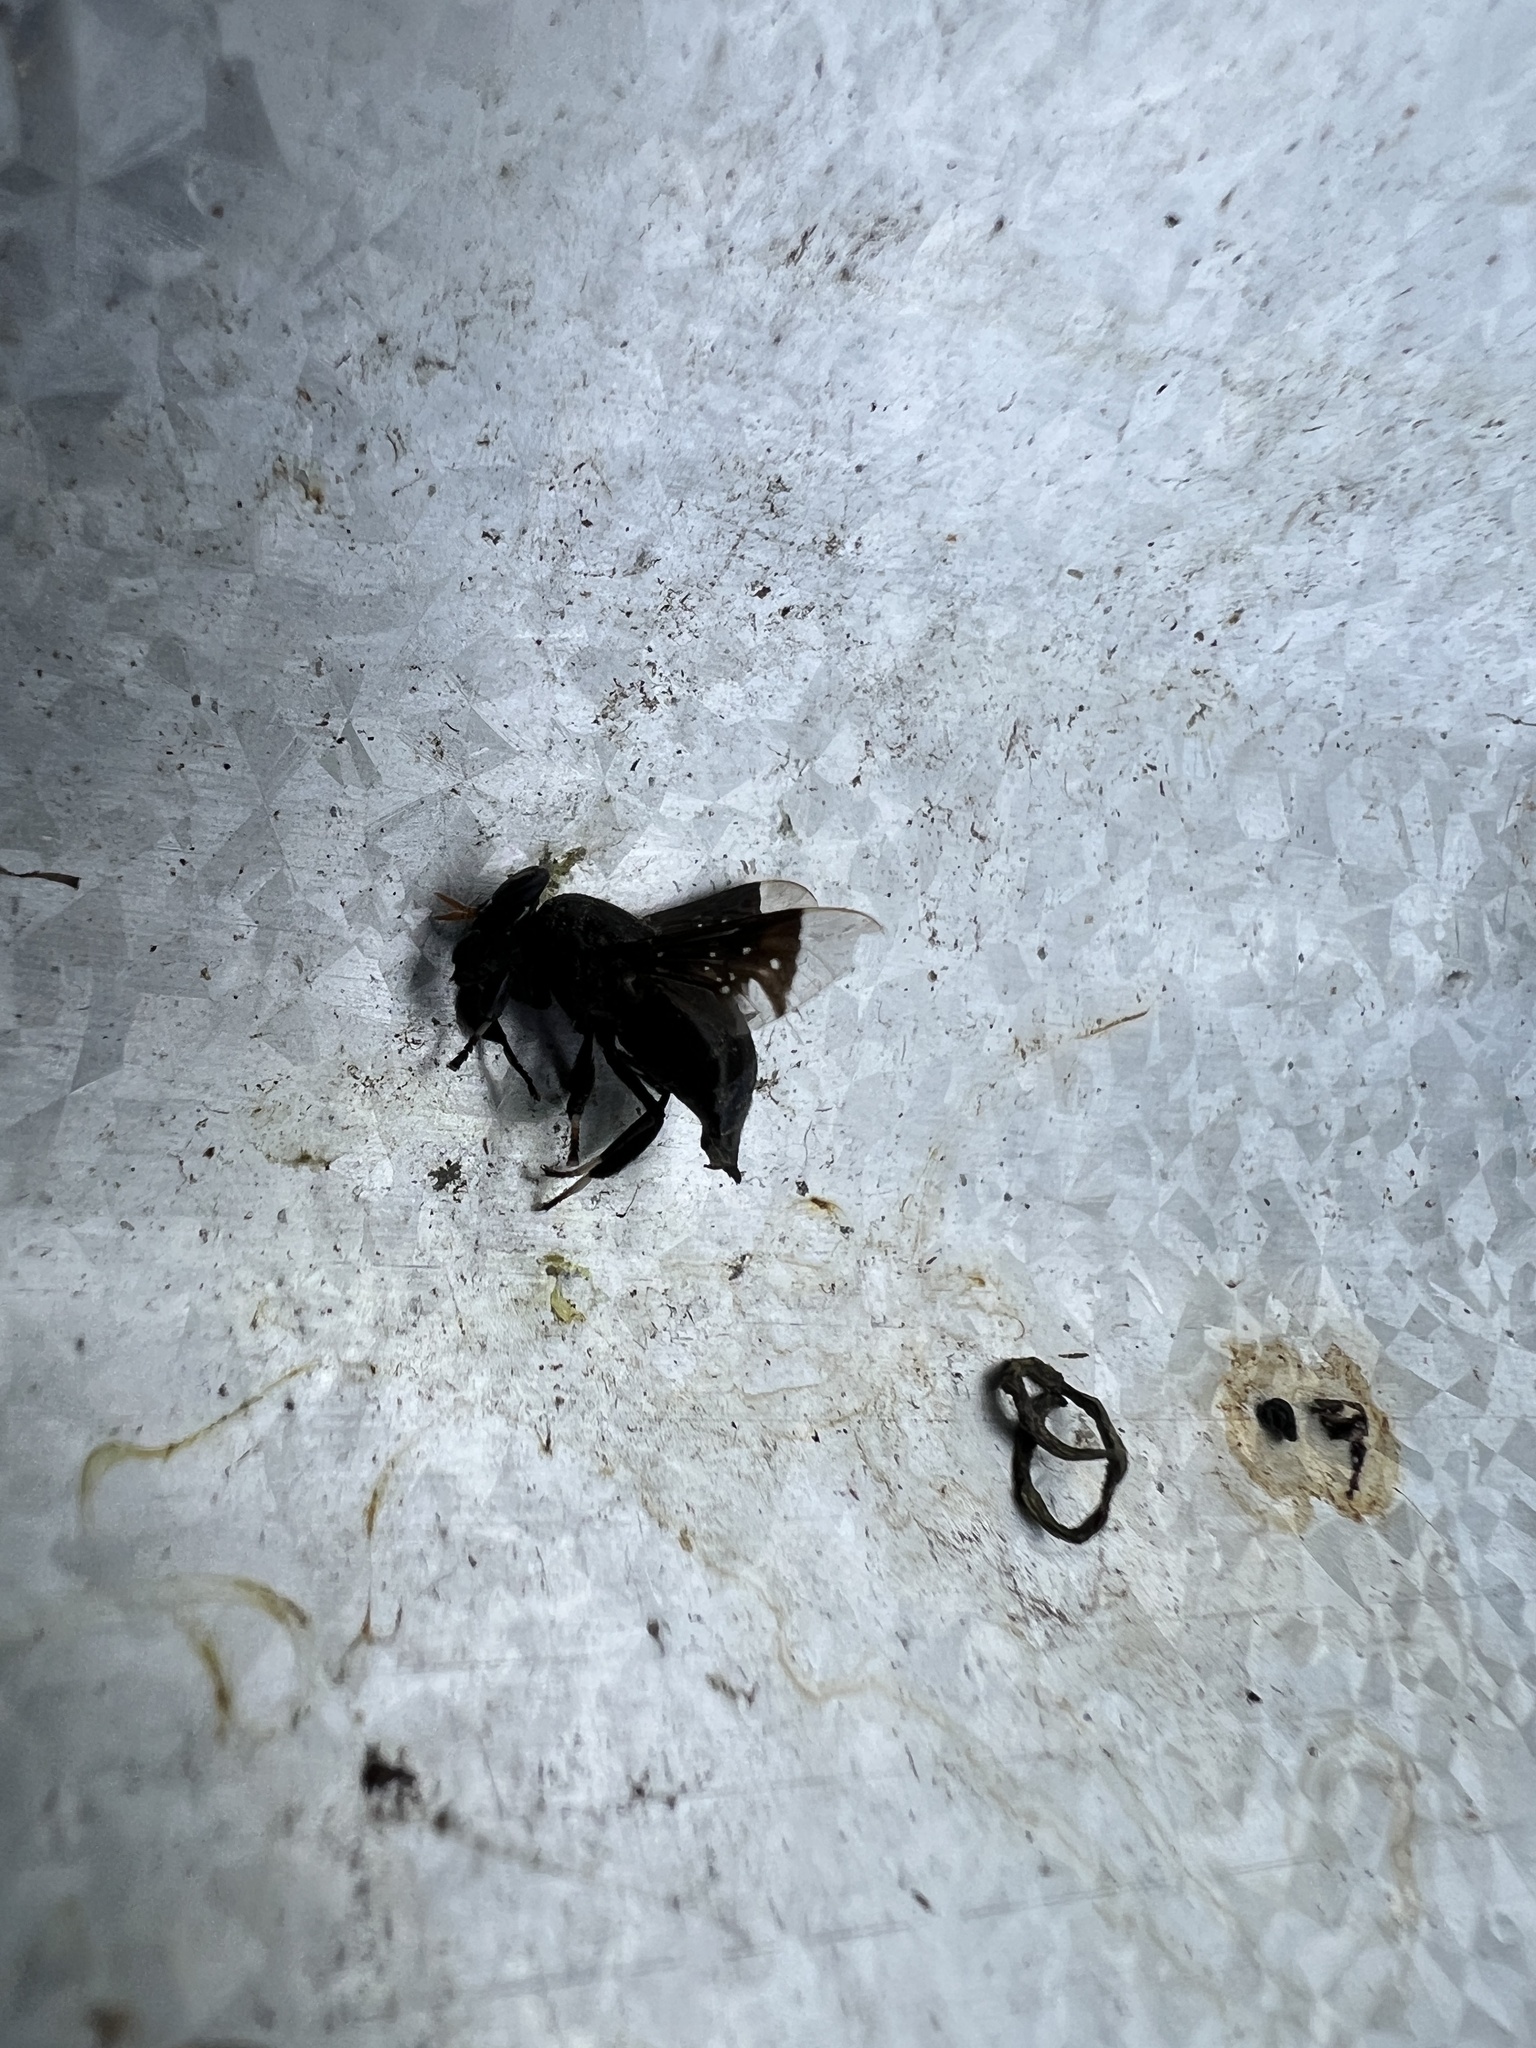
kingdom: Animalia
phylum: Arthropoda
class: Insecta
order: Diptera
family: Tabanidae
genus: Lepiselaga
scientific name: Lepiselaga crassipes
